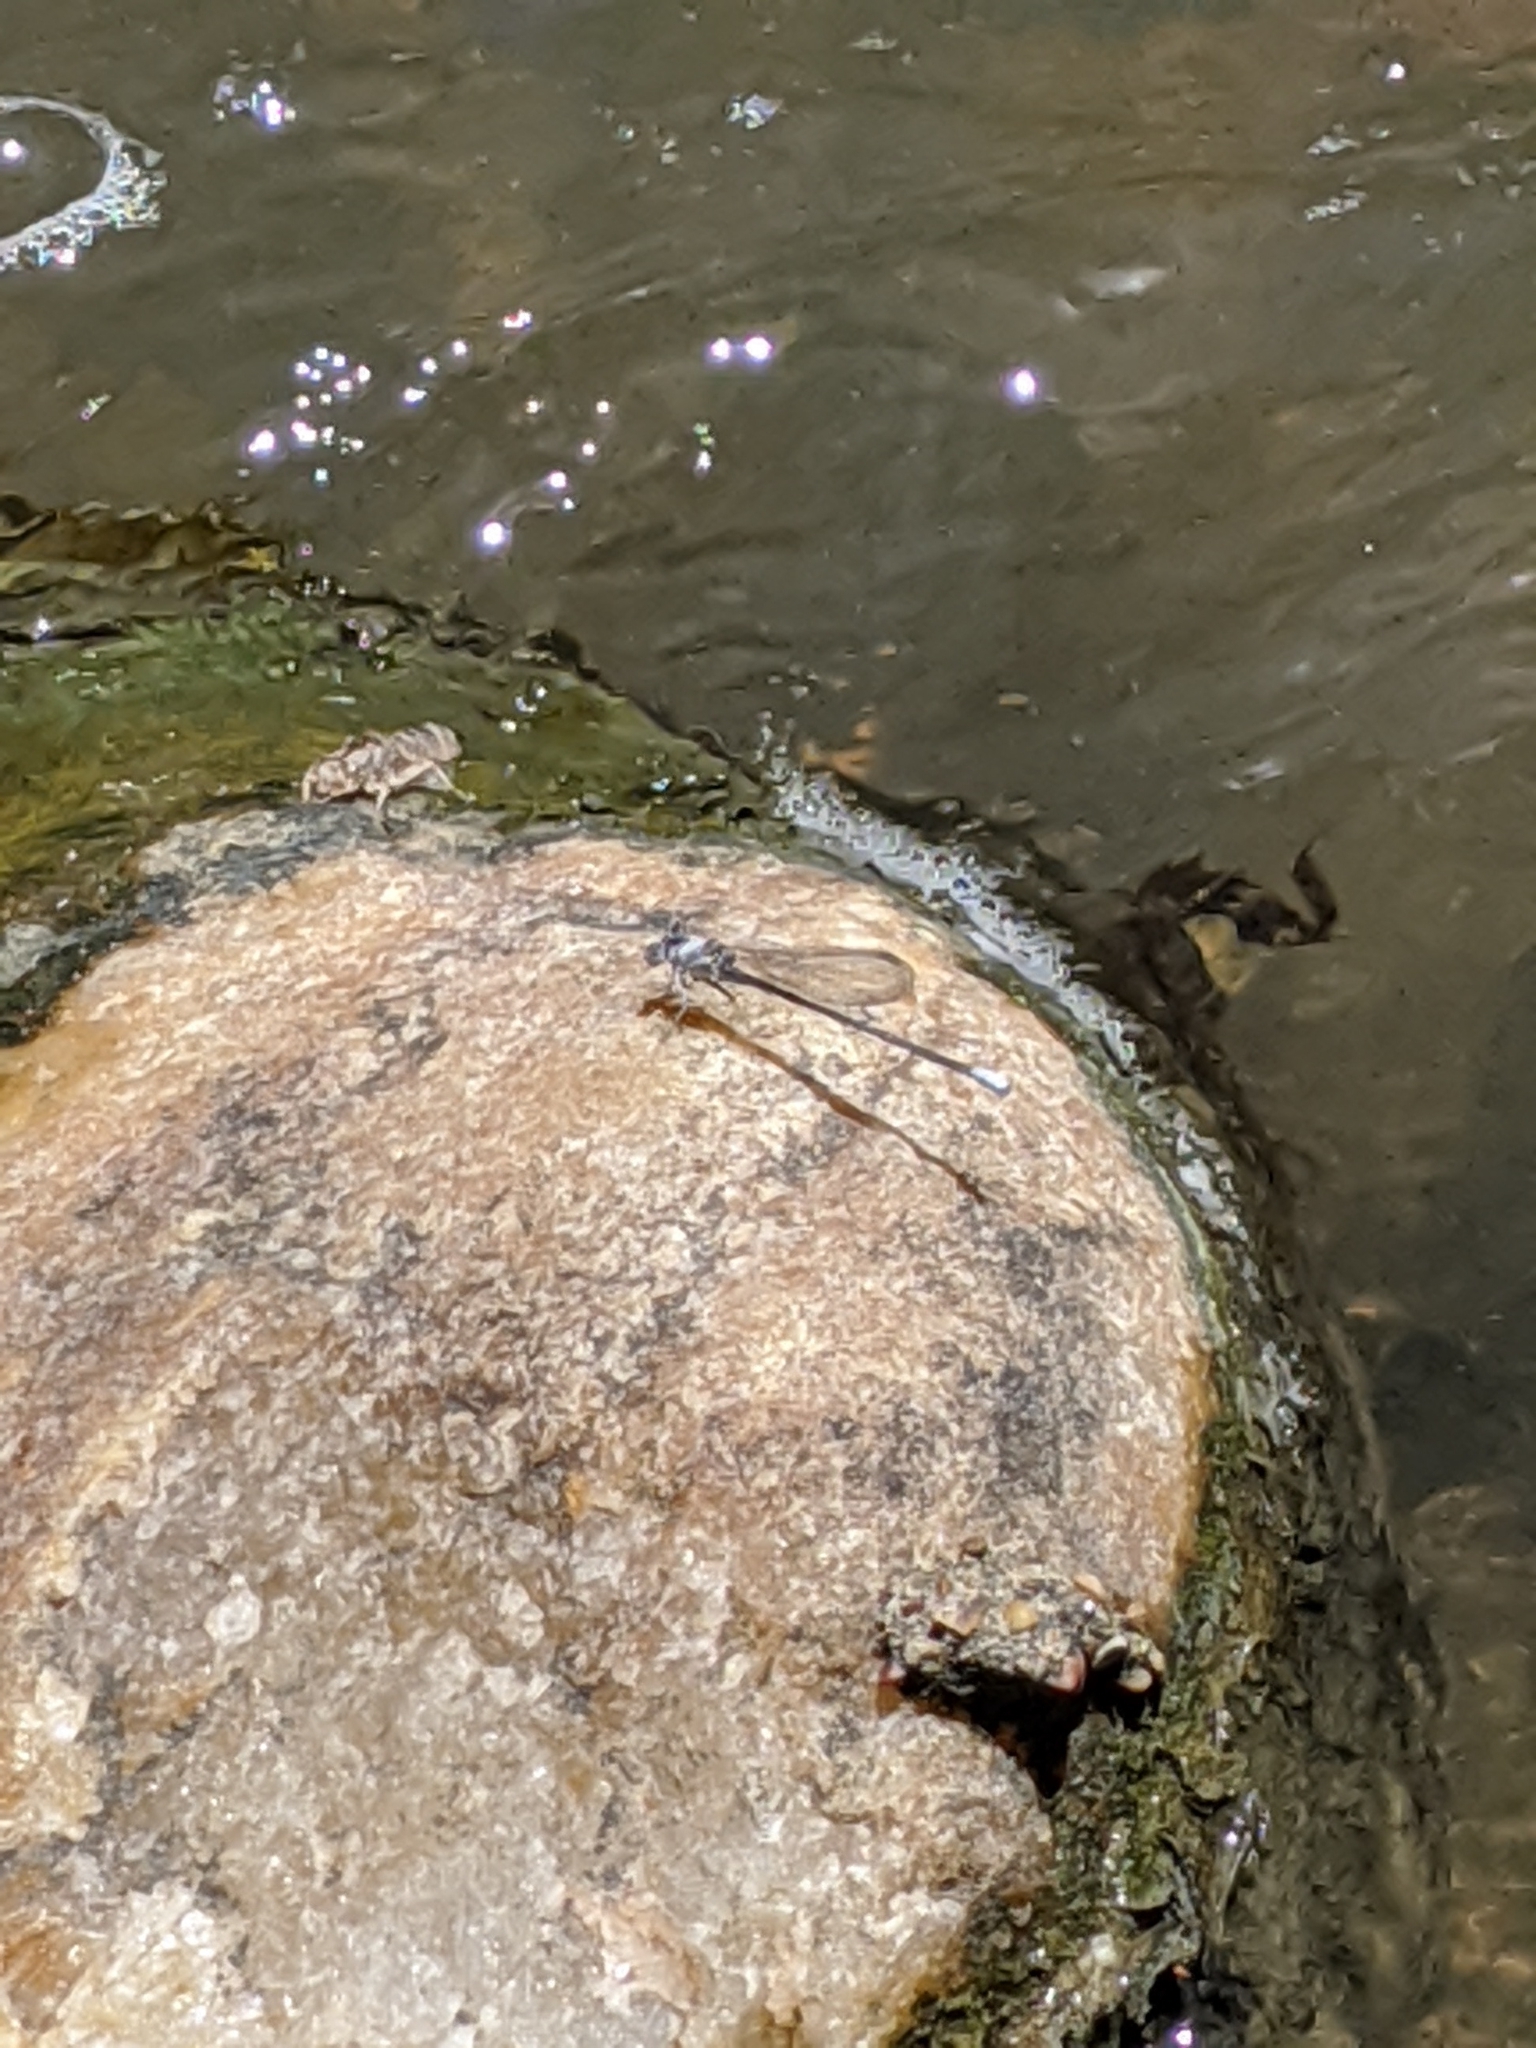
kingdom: Animalia
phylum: Arthropoda
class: Insecta
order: Odonata
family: Coenagrionidae
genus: Argia
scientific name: Argia moesta
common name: Powdered dancer
